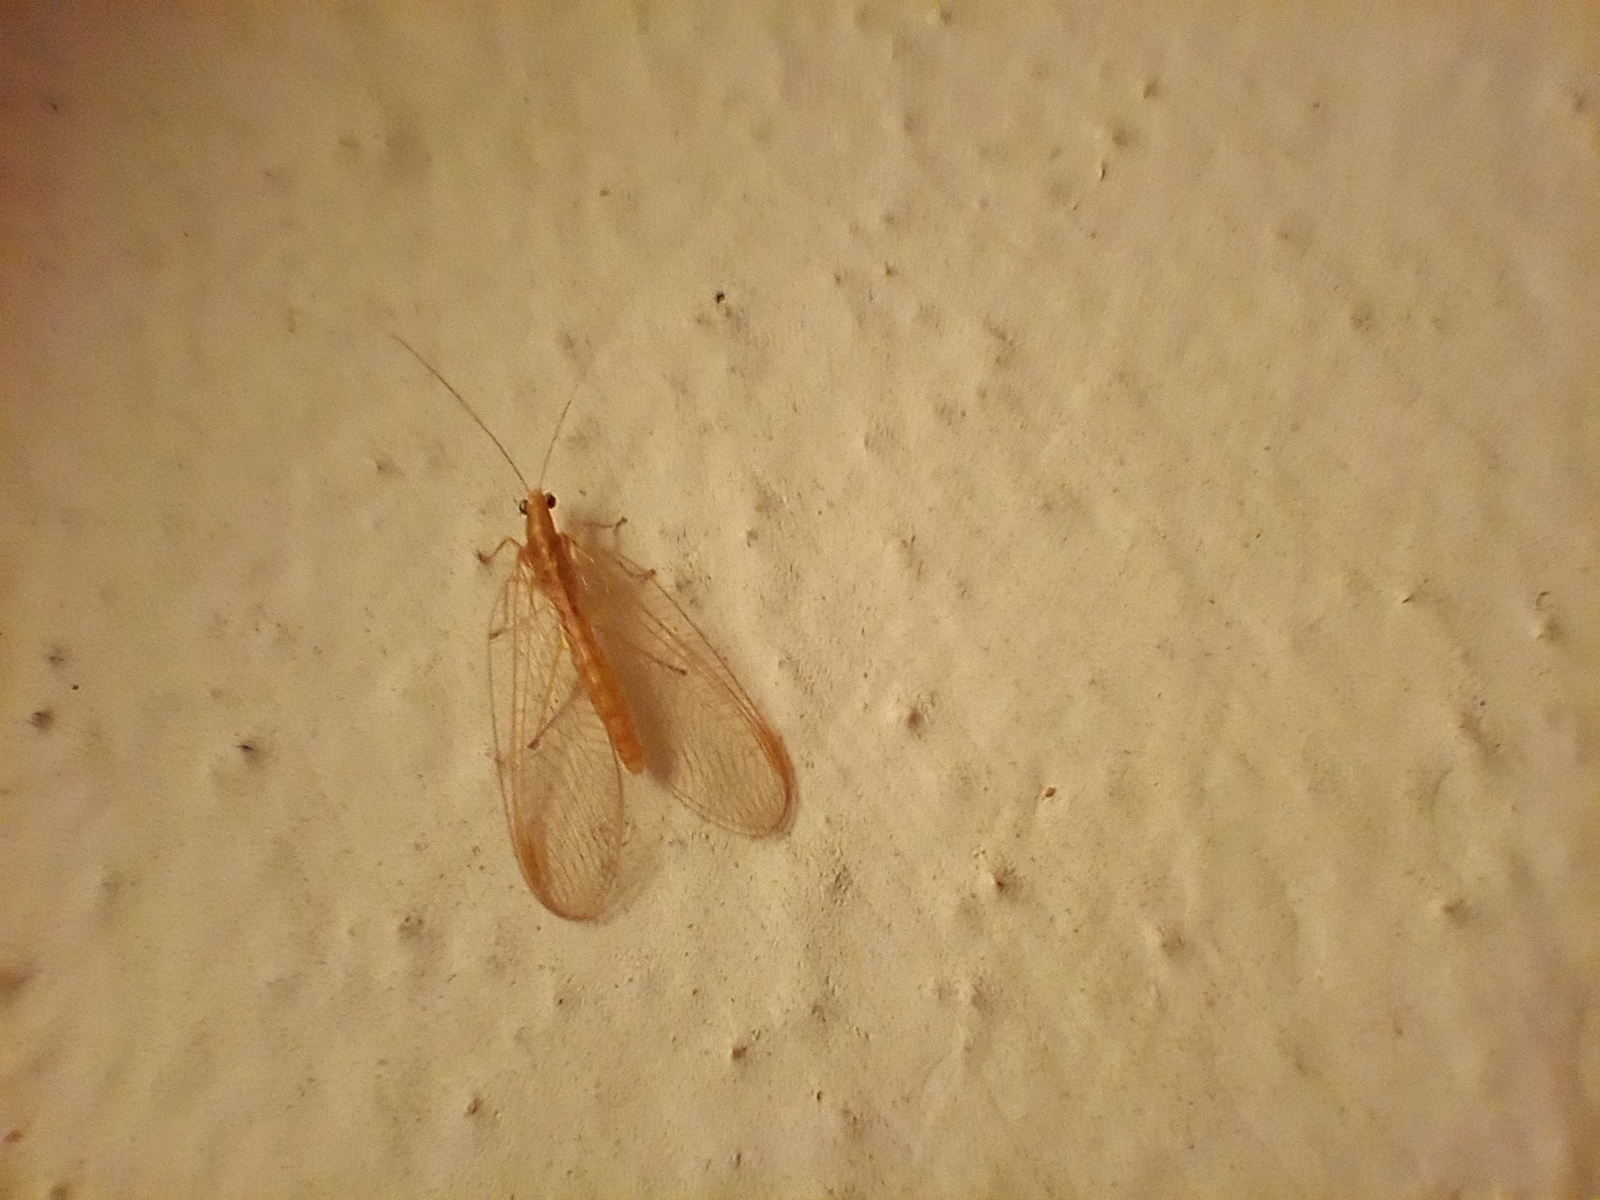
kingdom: Animalia
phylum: Arthropoda
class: Insecta
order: Neuroptera
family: Chrysopidae
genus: Chrysoperla
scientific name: Chrysoperla carnea
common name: Common green lacewing
